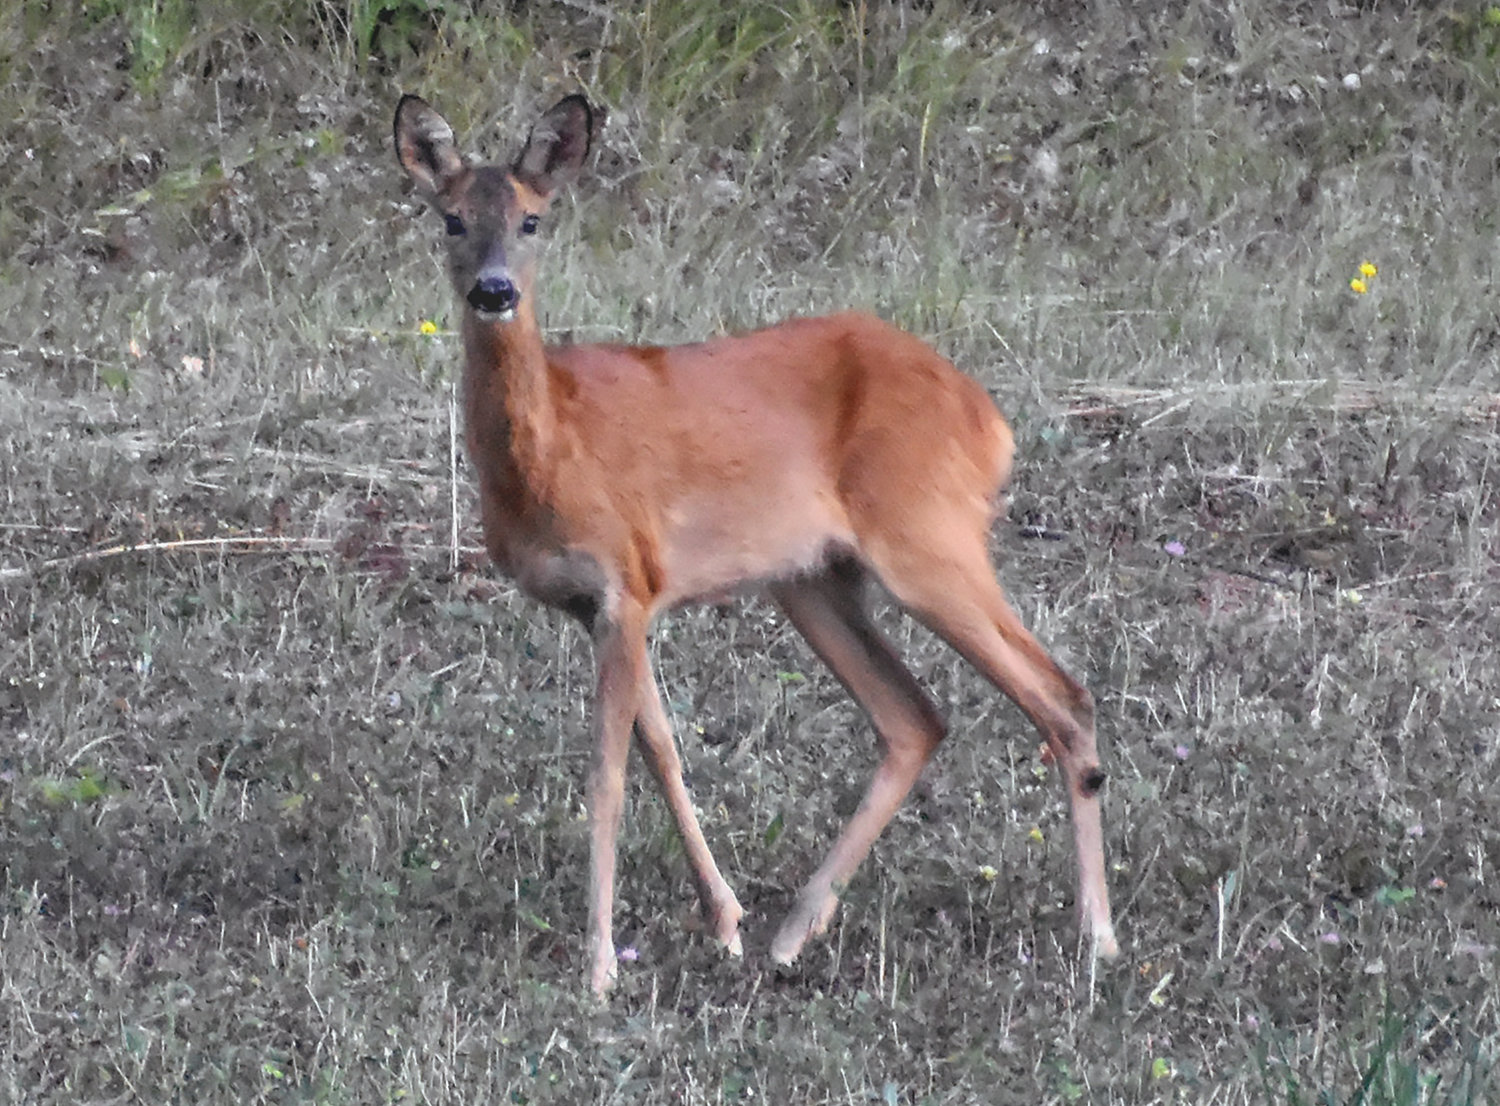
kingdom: Animalia
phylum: Chordata
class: Mammalia
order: Artiodactyla
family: Cervidae
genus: Capreolus
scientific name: Capreolus capreolus
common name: Western roe deer
